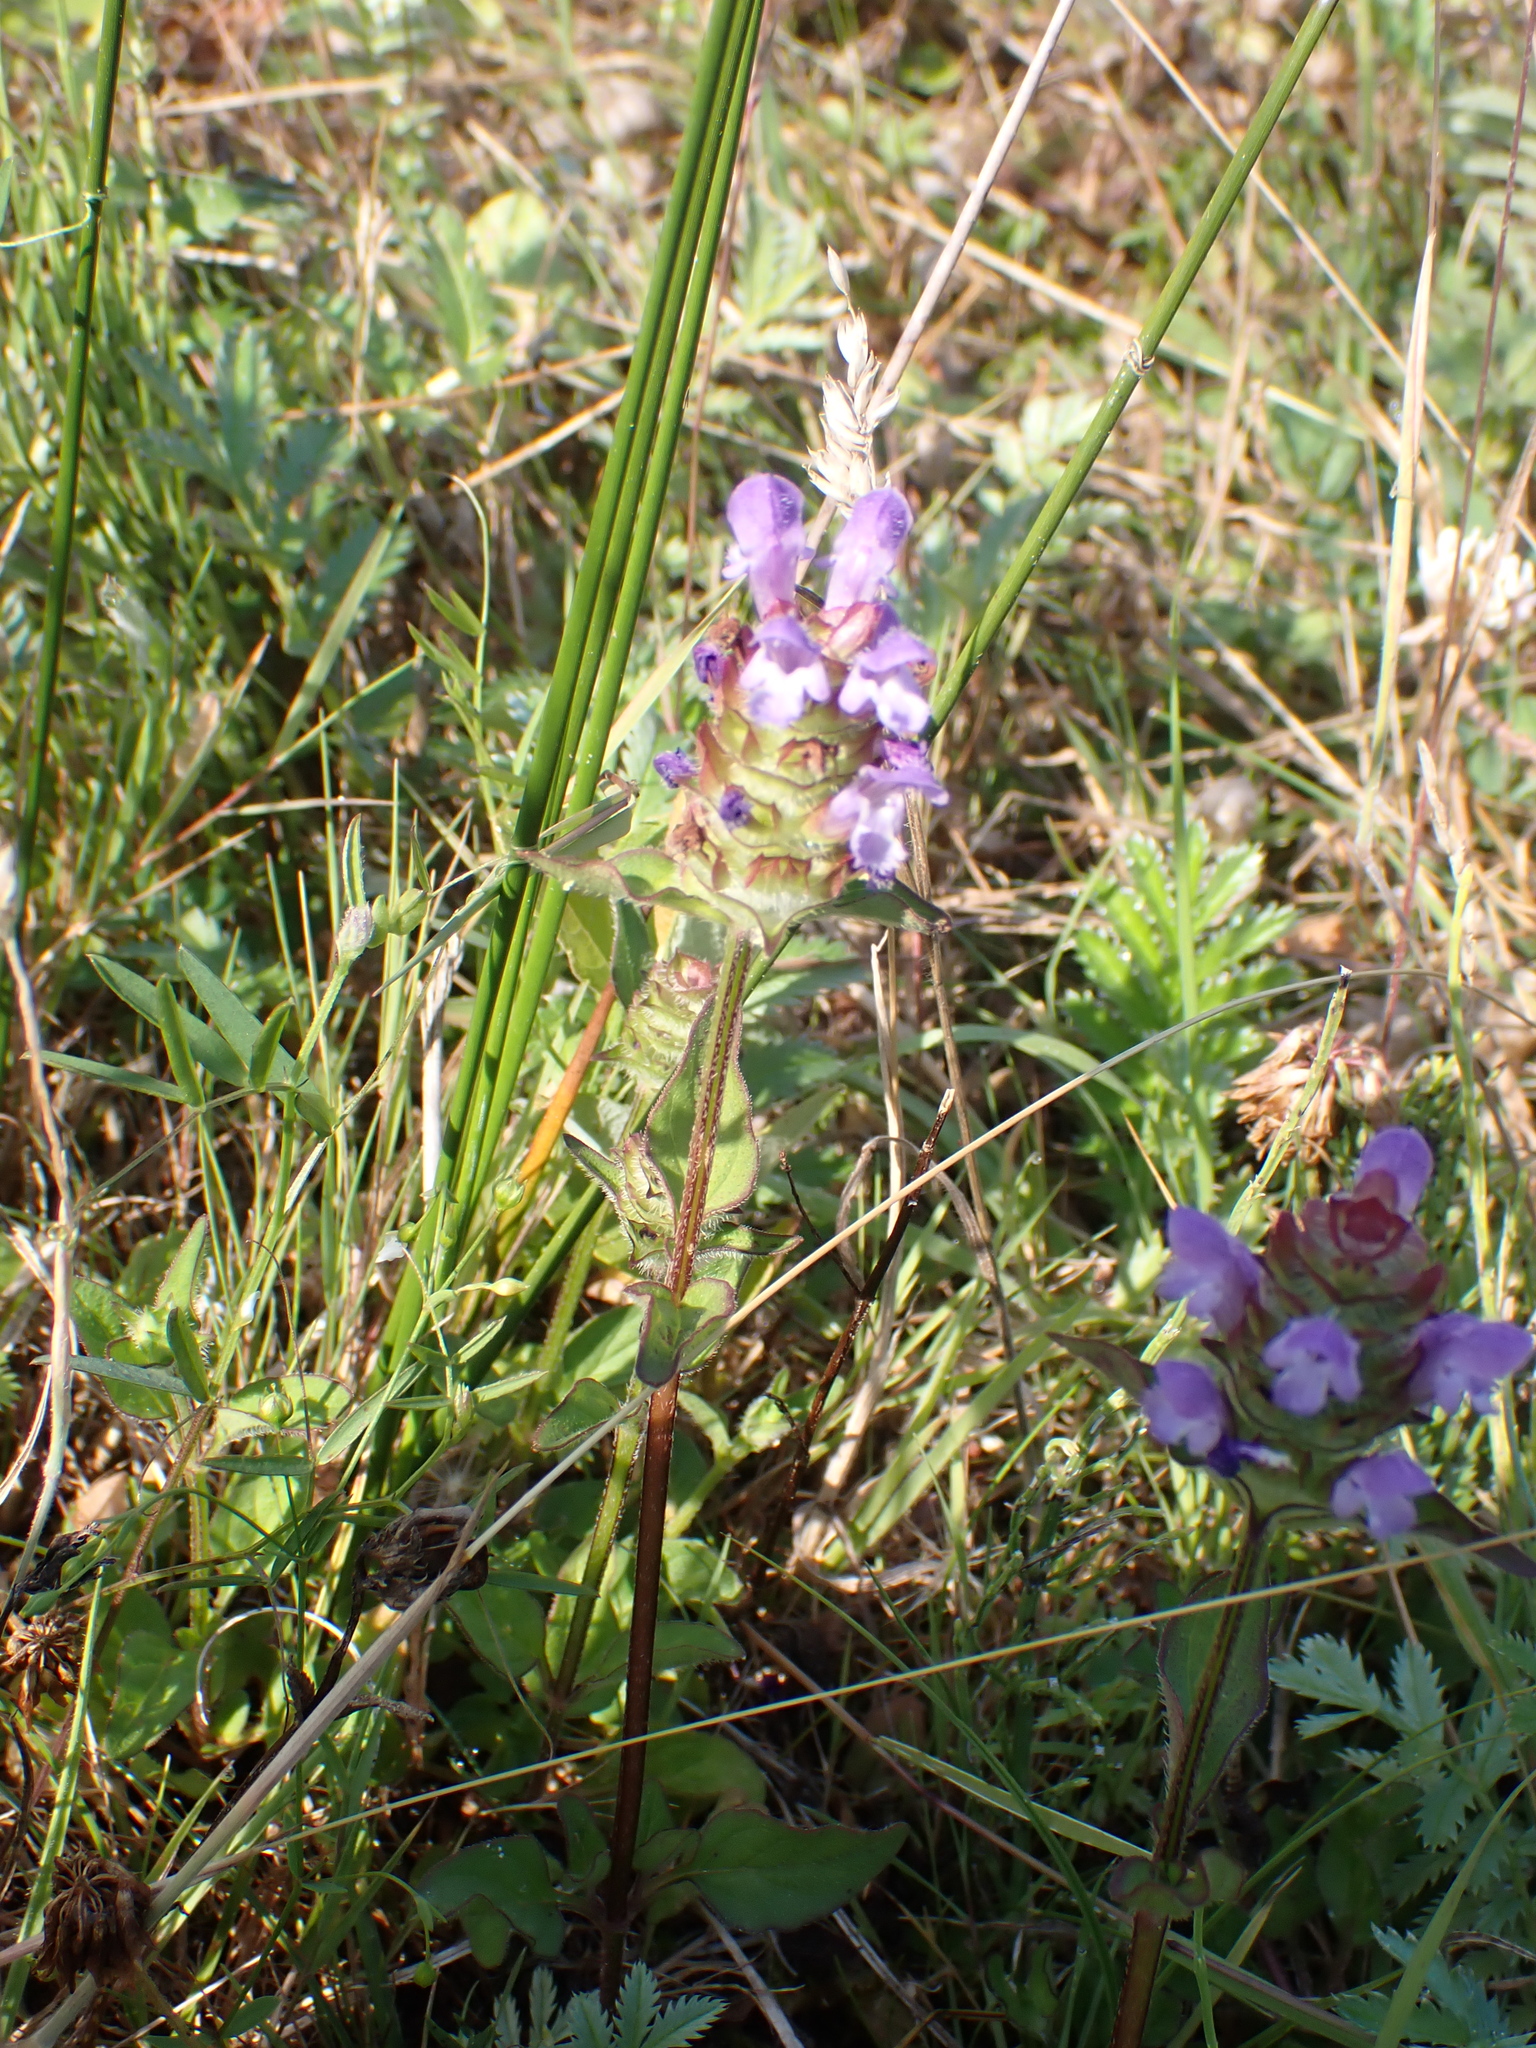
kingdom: Plantae
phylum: Tracheophyta
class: Magnoliopsida
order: Lamiales
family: Lamiaceae
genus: Prunella
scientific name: Prunella vulgaris
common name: Heal-all
